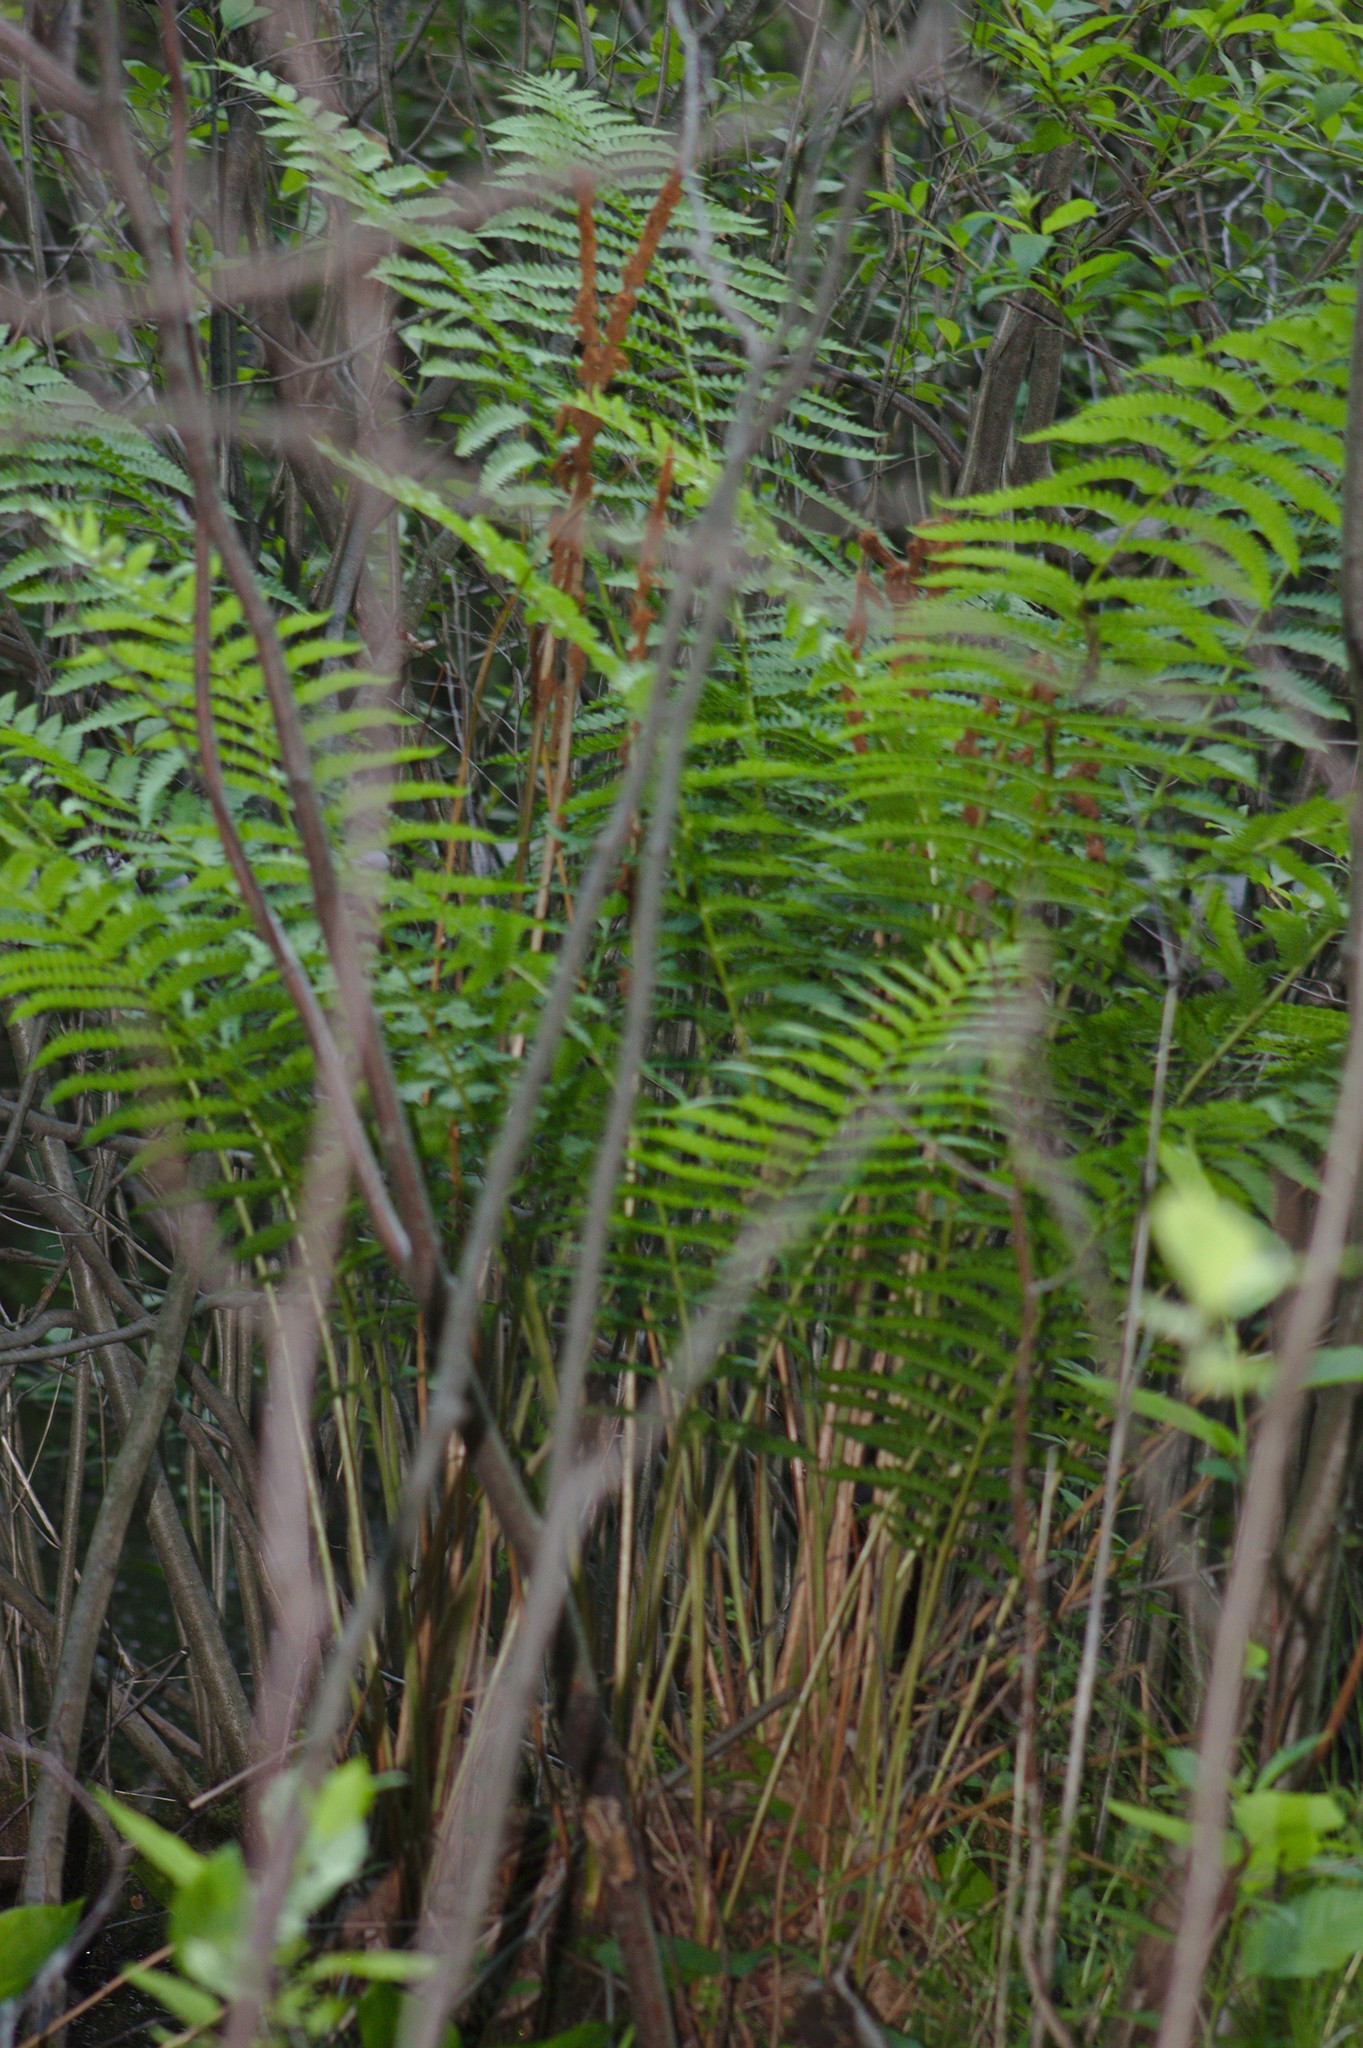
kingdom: Plantae
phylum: Tracheophyta
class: Polypodiopsida
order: Osmundales
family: Osmundaceae
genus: Osmundastrum
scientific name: Osmundastrum cinnamomeum
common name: Cinnamon fern
